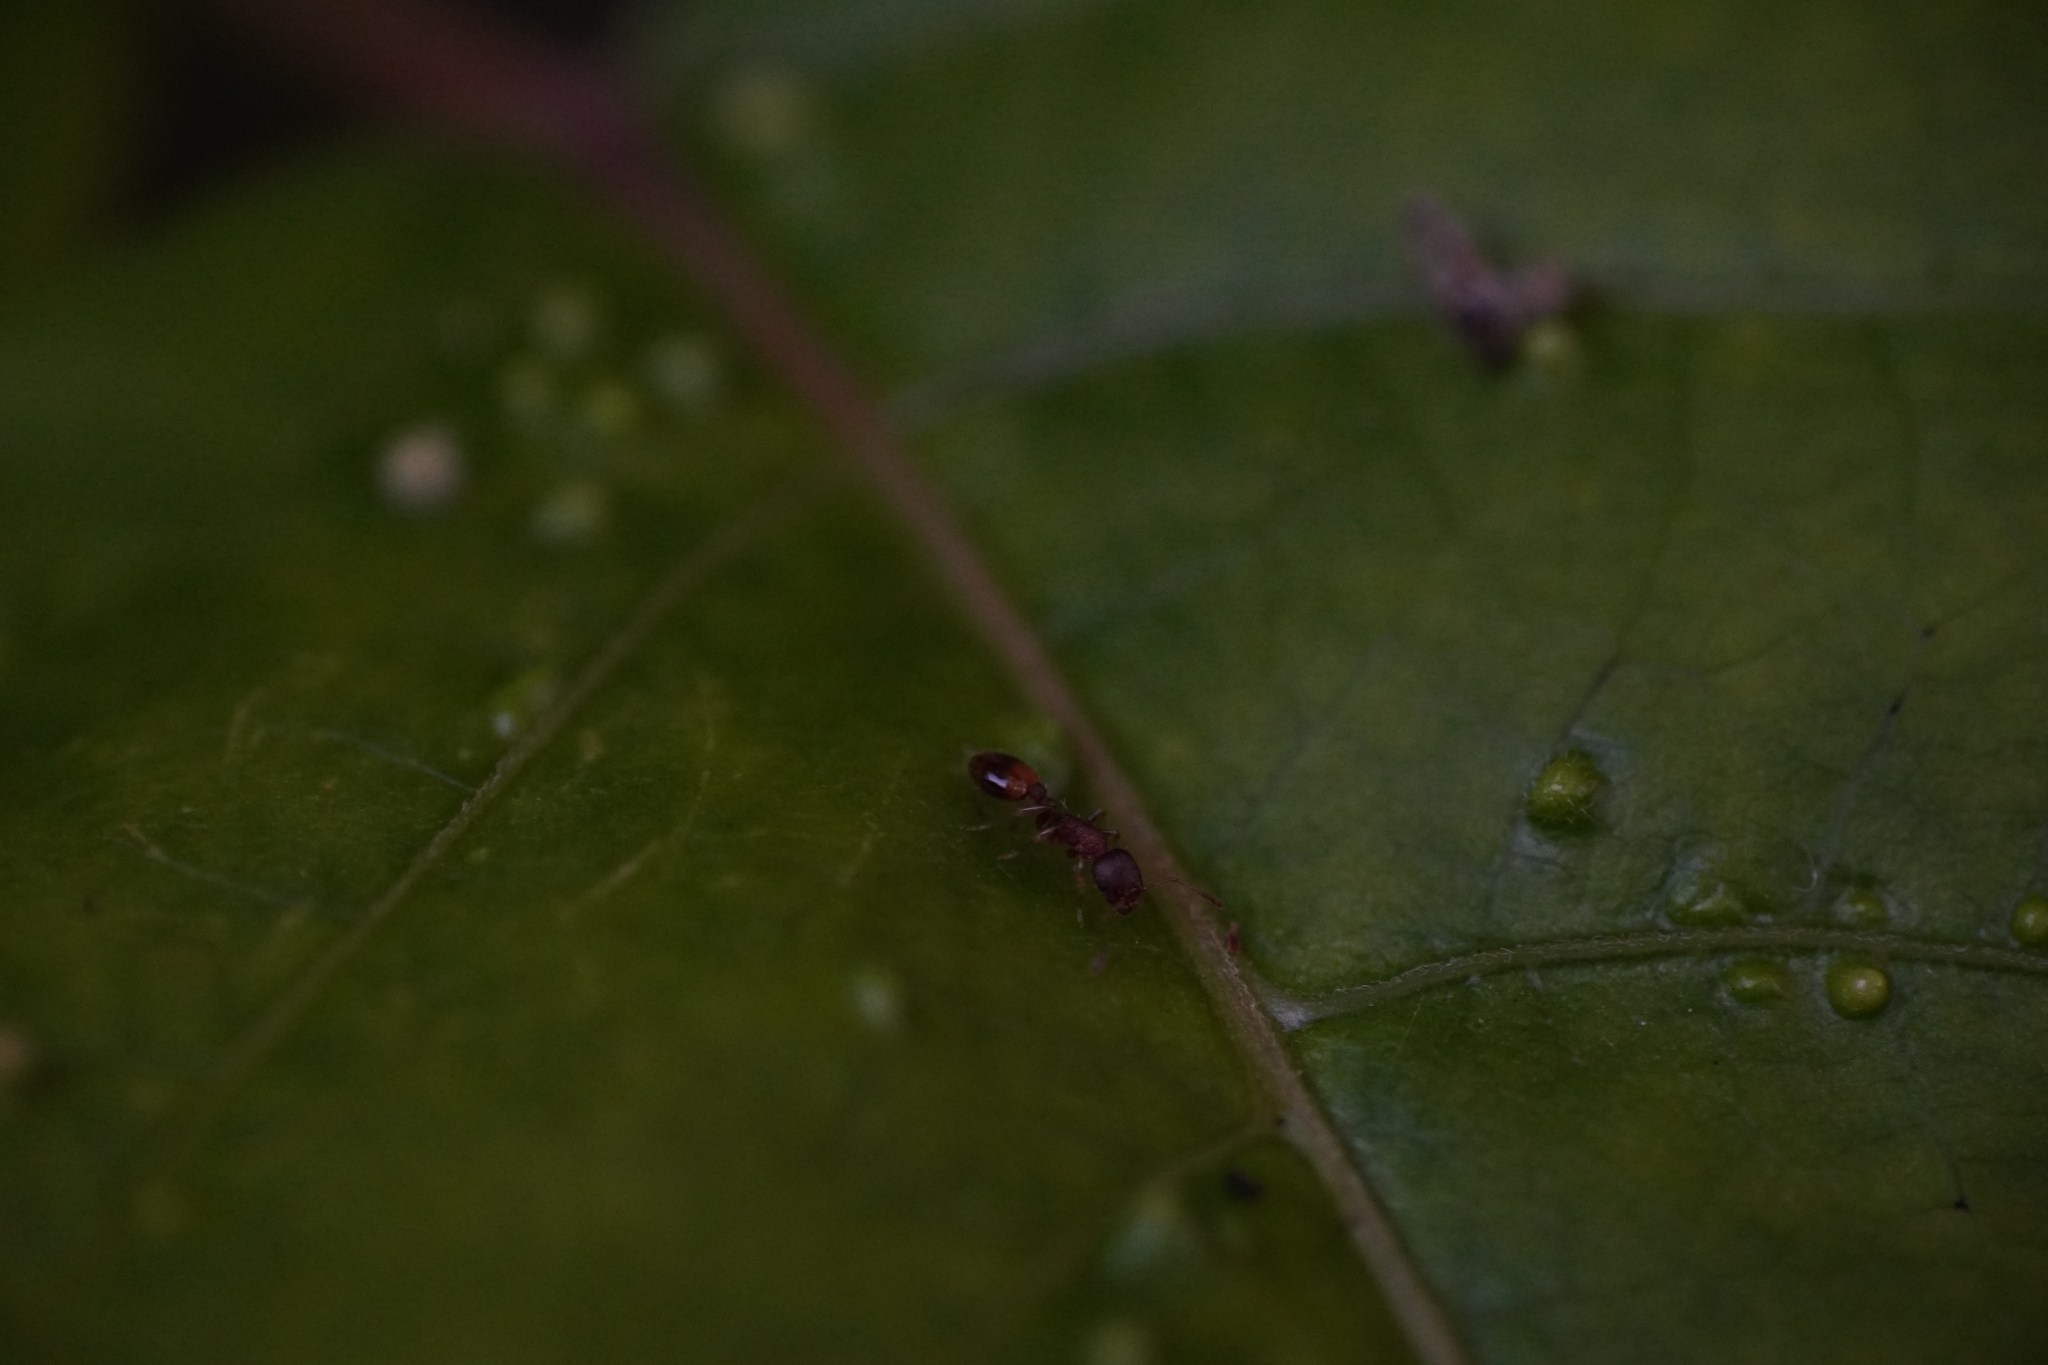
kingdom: Animalia
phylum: Arthropoda
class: Insecta
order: Hymenoptera
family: Formicidae
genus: Temnothorax
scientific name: Temnothorax curvispinosus
